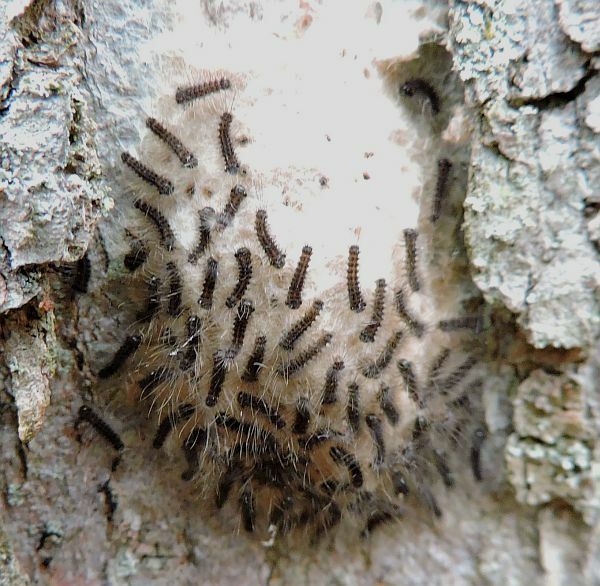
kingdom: Animalia
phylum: Arthropoda
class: Insecta
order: Lepidoptera
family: Erebidae
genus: Lymantria
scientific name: Lymantria dispar
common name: Gypsy moth
